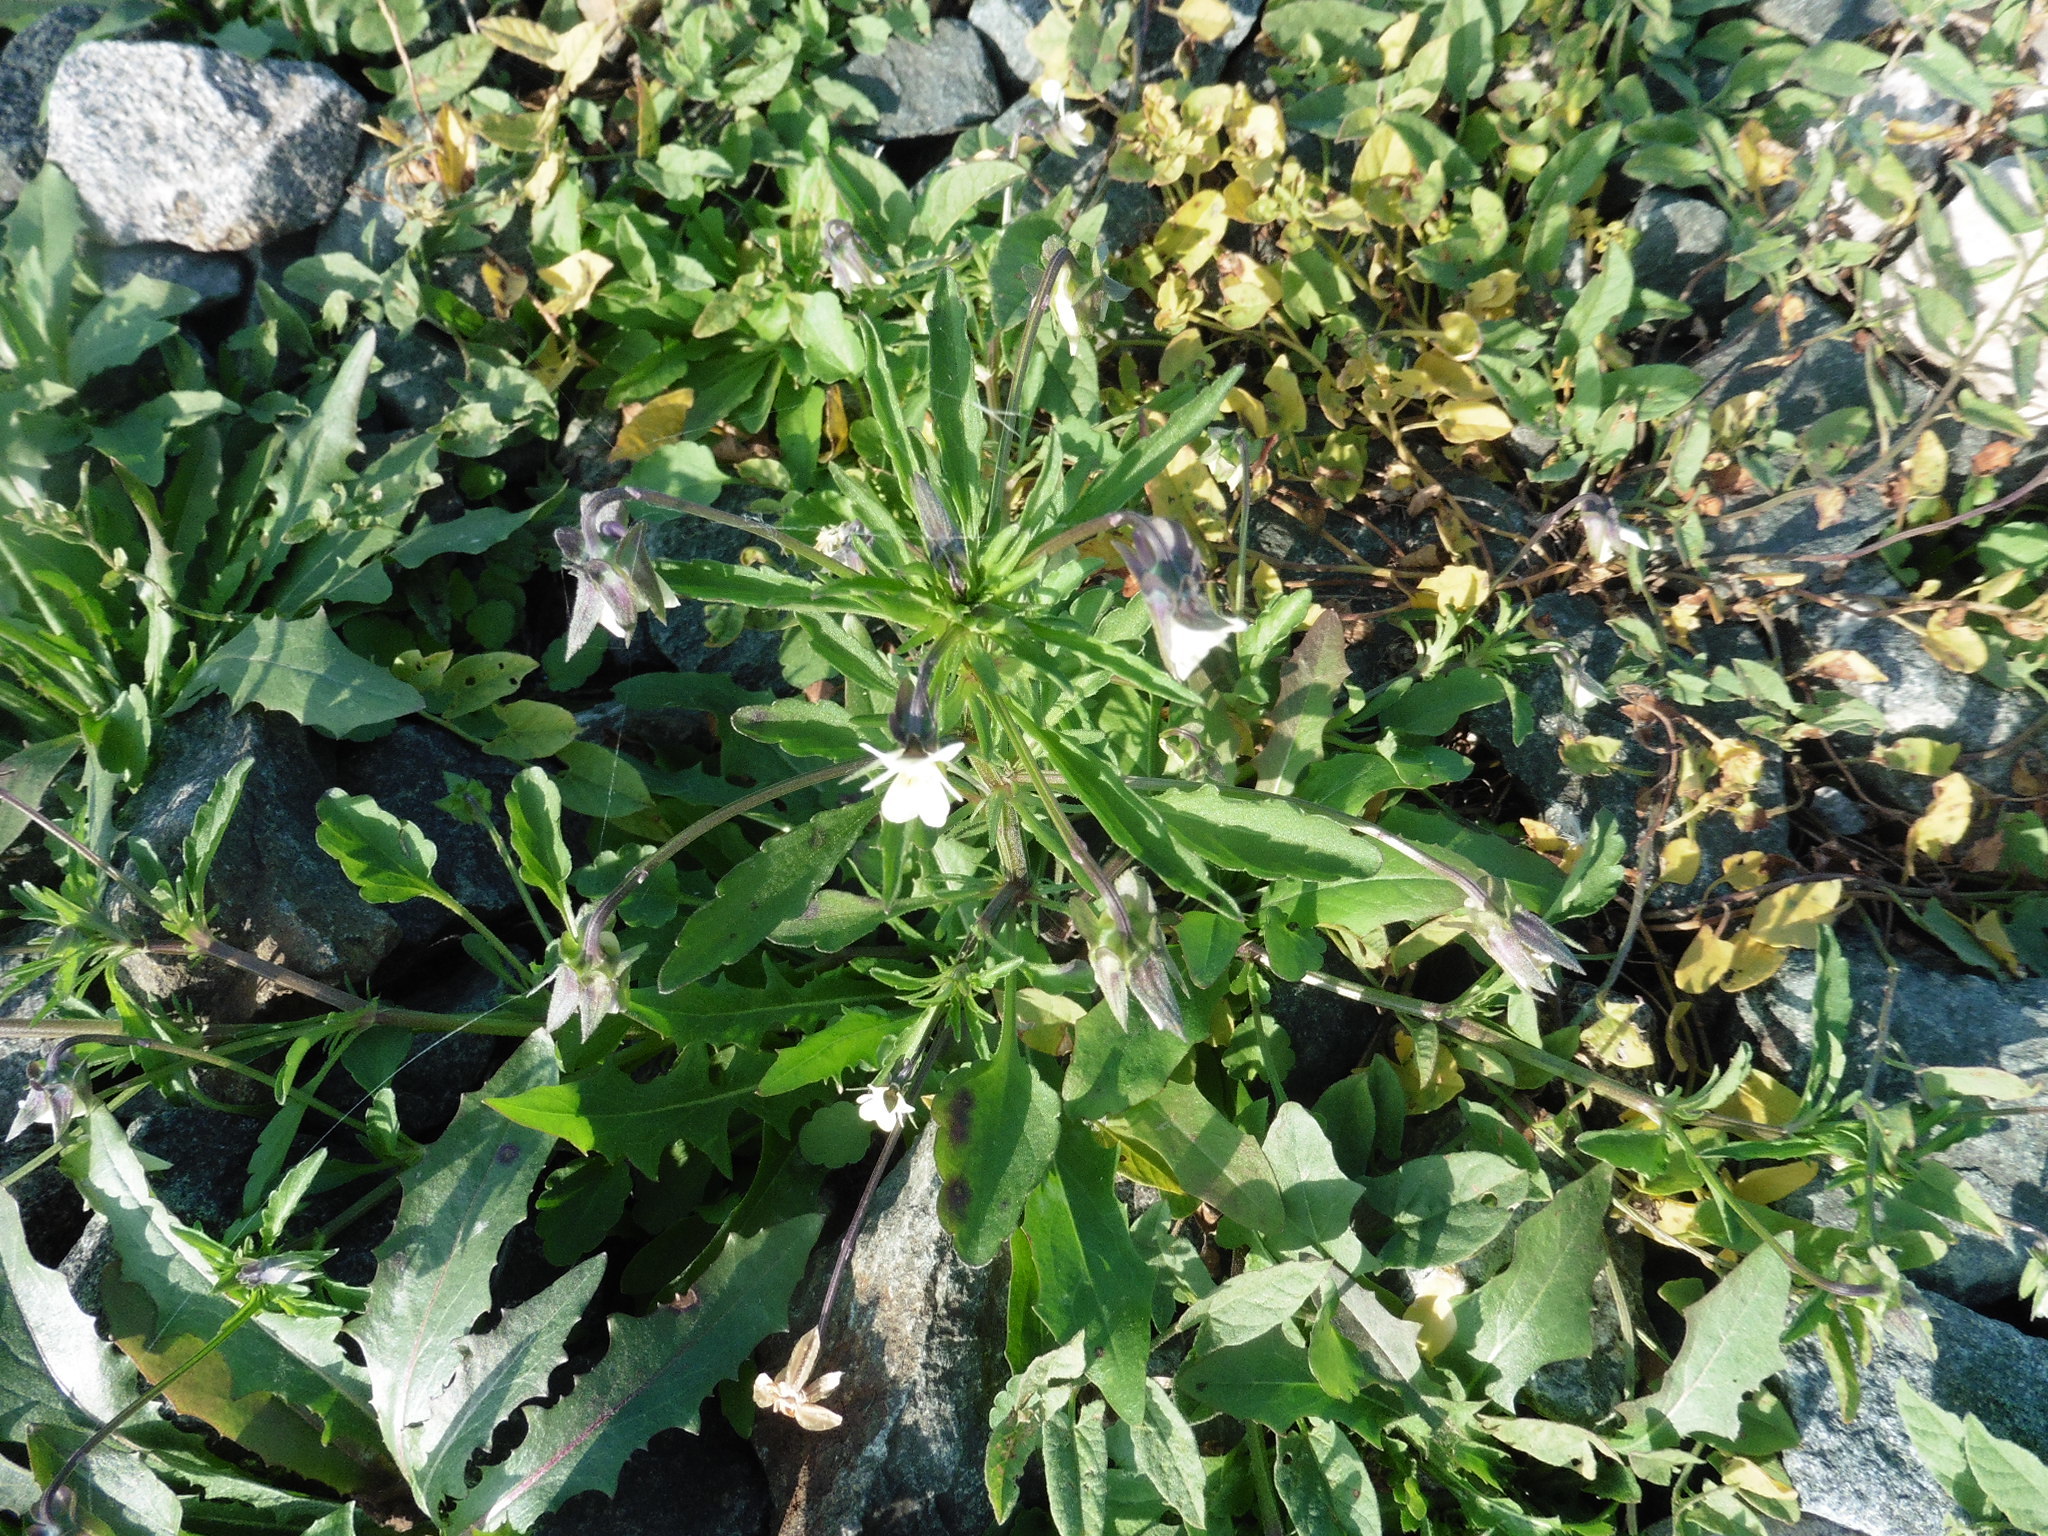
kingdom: Plantae
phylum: Tracheophyta
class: Magnoliopsida
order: Malpighiales
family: Violaceae
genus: Viola
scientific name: Viola arvensis
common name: Field pansy
